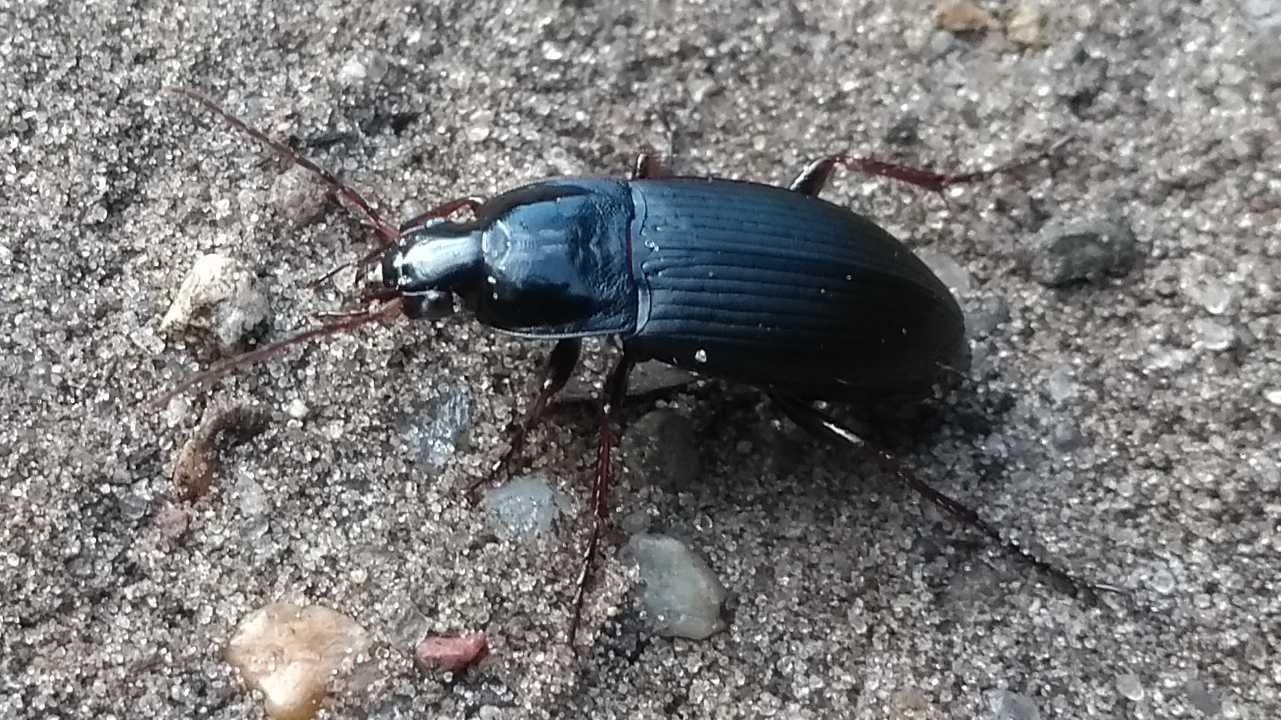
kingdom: Animalia
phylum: Arthropoda
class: Insecta
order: Coleoptera
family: Carabidae
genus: Calathus
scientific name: Calathus fuscipes
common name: Dark-footed harp ground beetle
